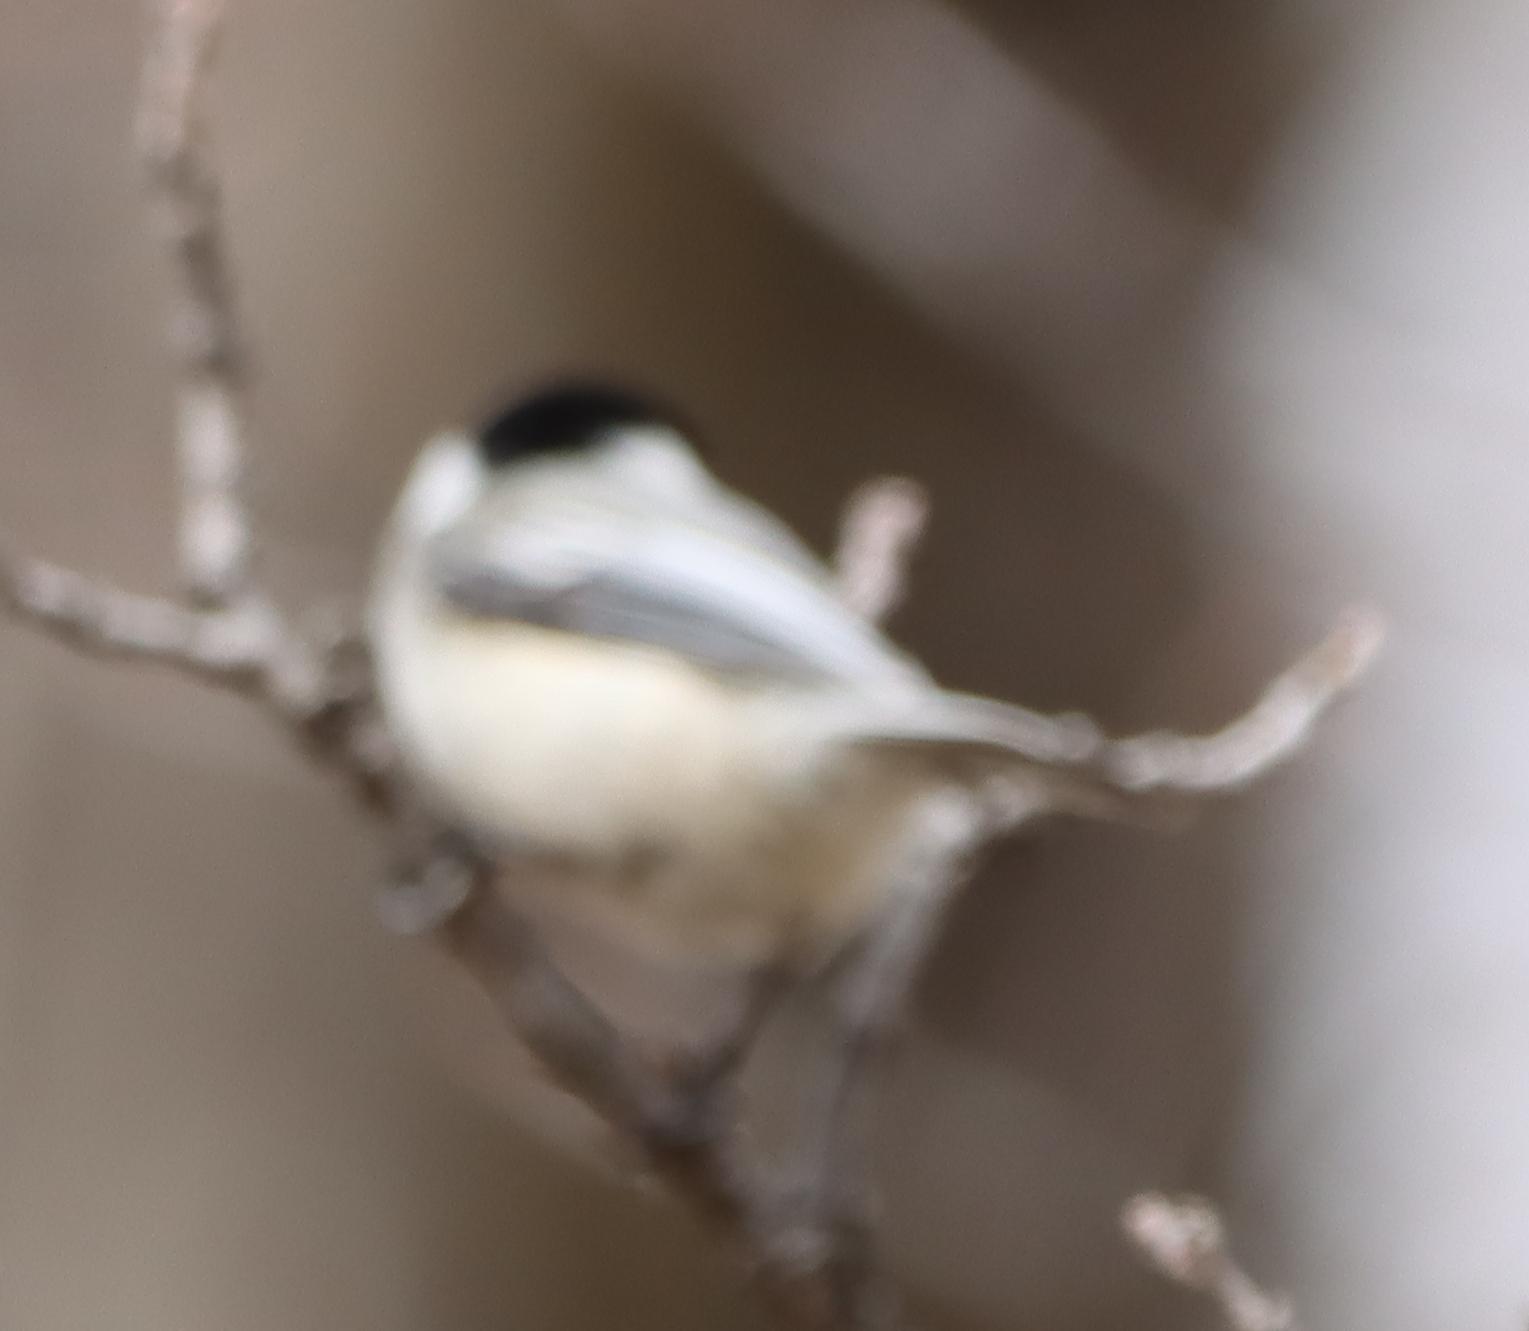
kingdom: Animalia
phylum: Chordata
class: Aves
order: Passeriformes
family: Paridae
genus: Poecile
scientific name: Poecile atricapillus
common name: Black-capped chickadee
